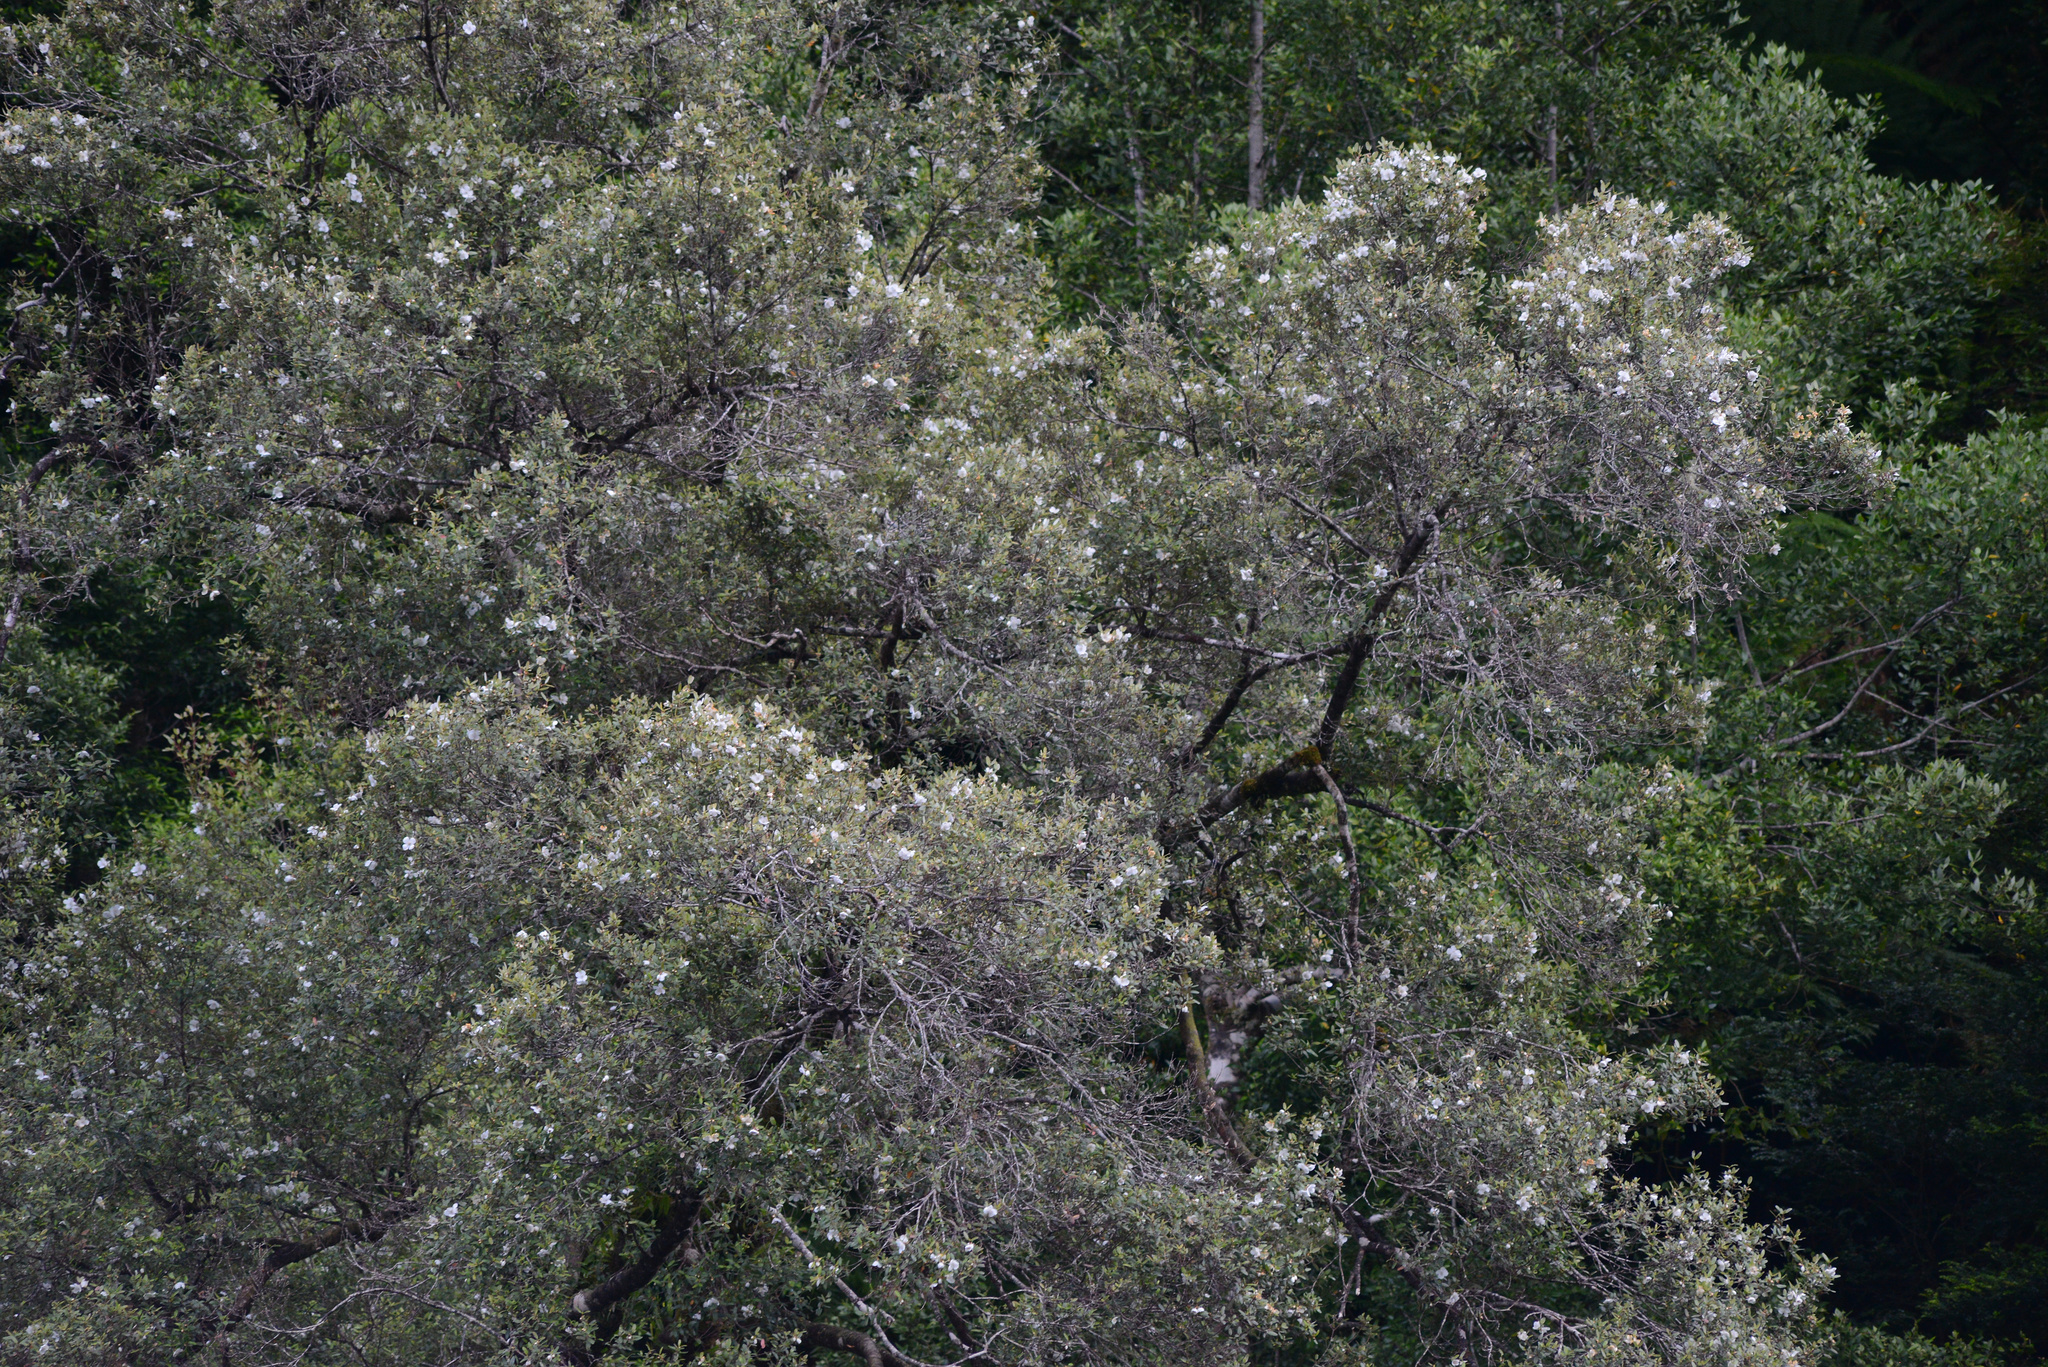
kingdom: Plantae
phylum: Tracheophyta
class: Magnoliopsida
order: Oxalidales
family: Cunoniaceae
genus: Eucryphia
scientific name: Eucryphia lucida
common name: Leatherwood
